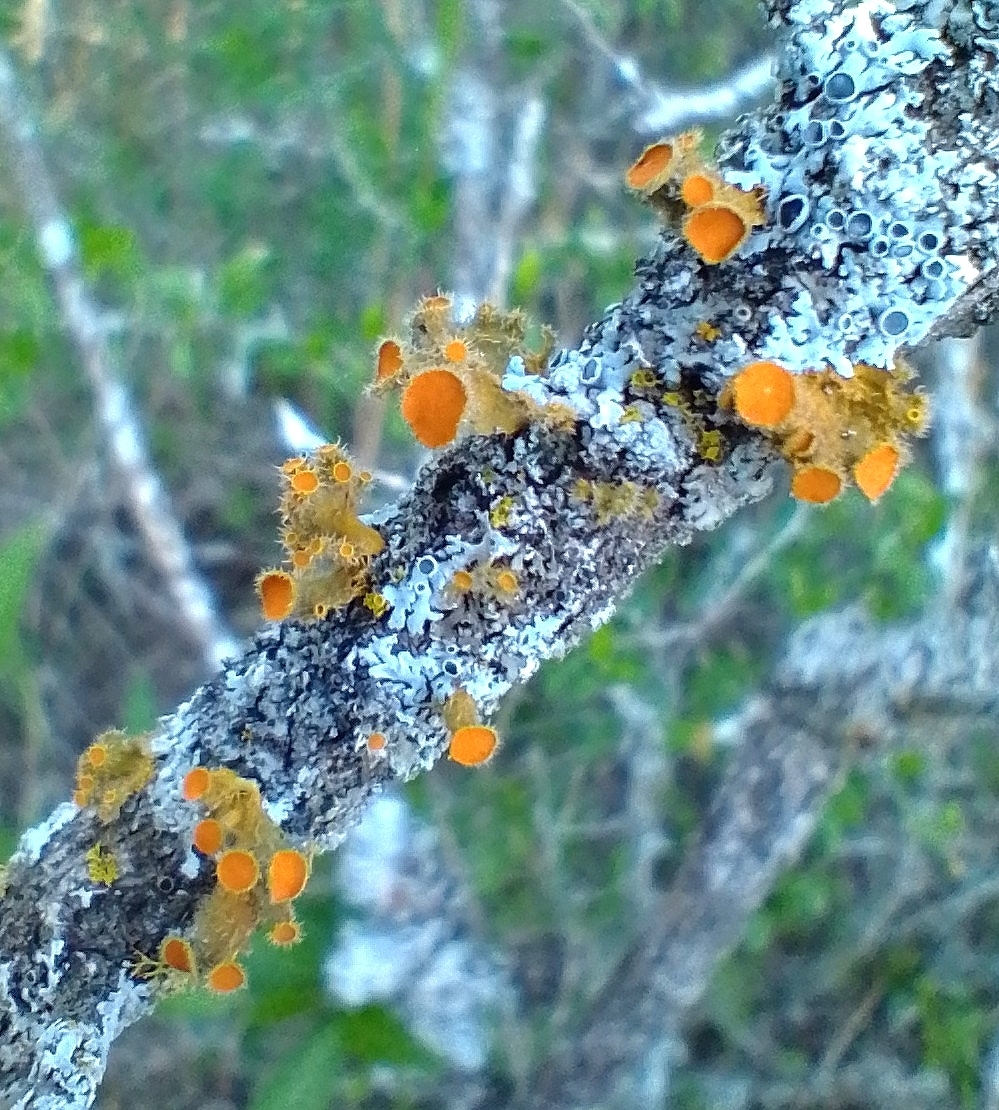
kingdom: Fungi
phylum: Ascomycota
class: Lecanoromycetes
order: Teloschistales
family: Teloschistaceae
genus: Niorma
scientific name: Niorma chrysophthalma
